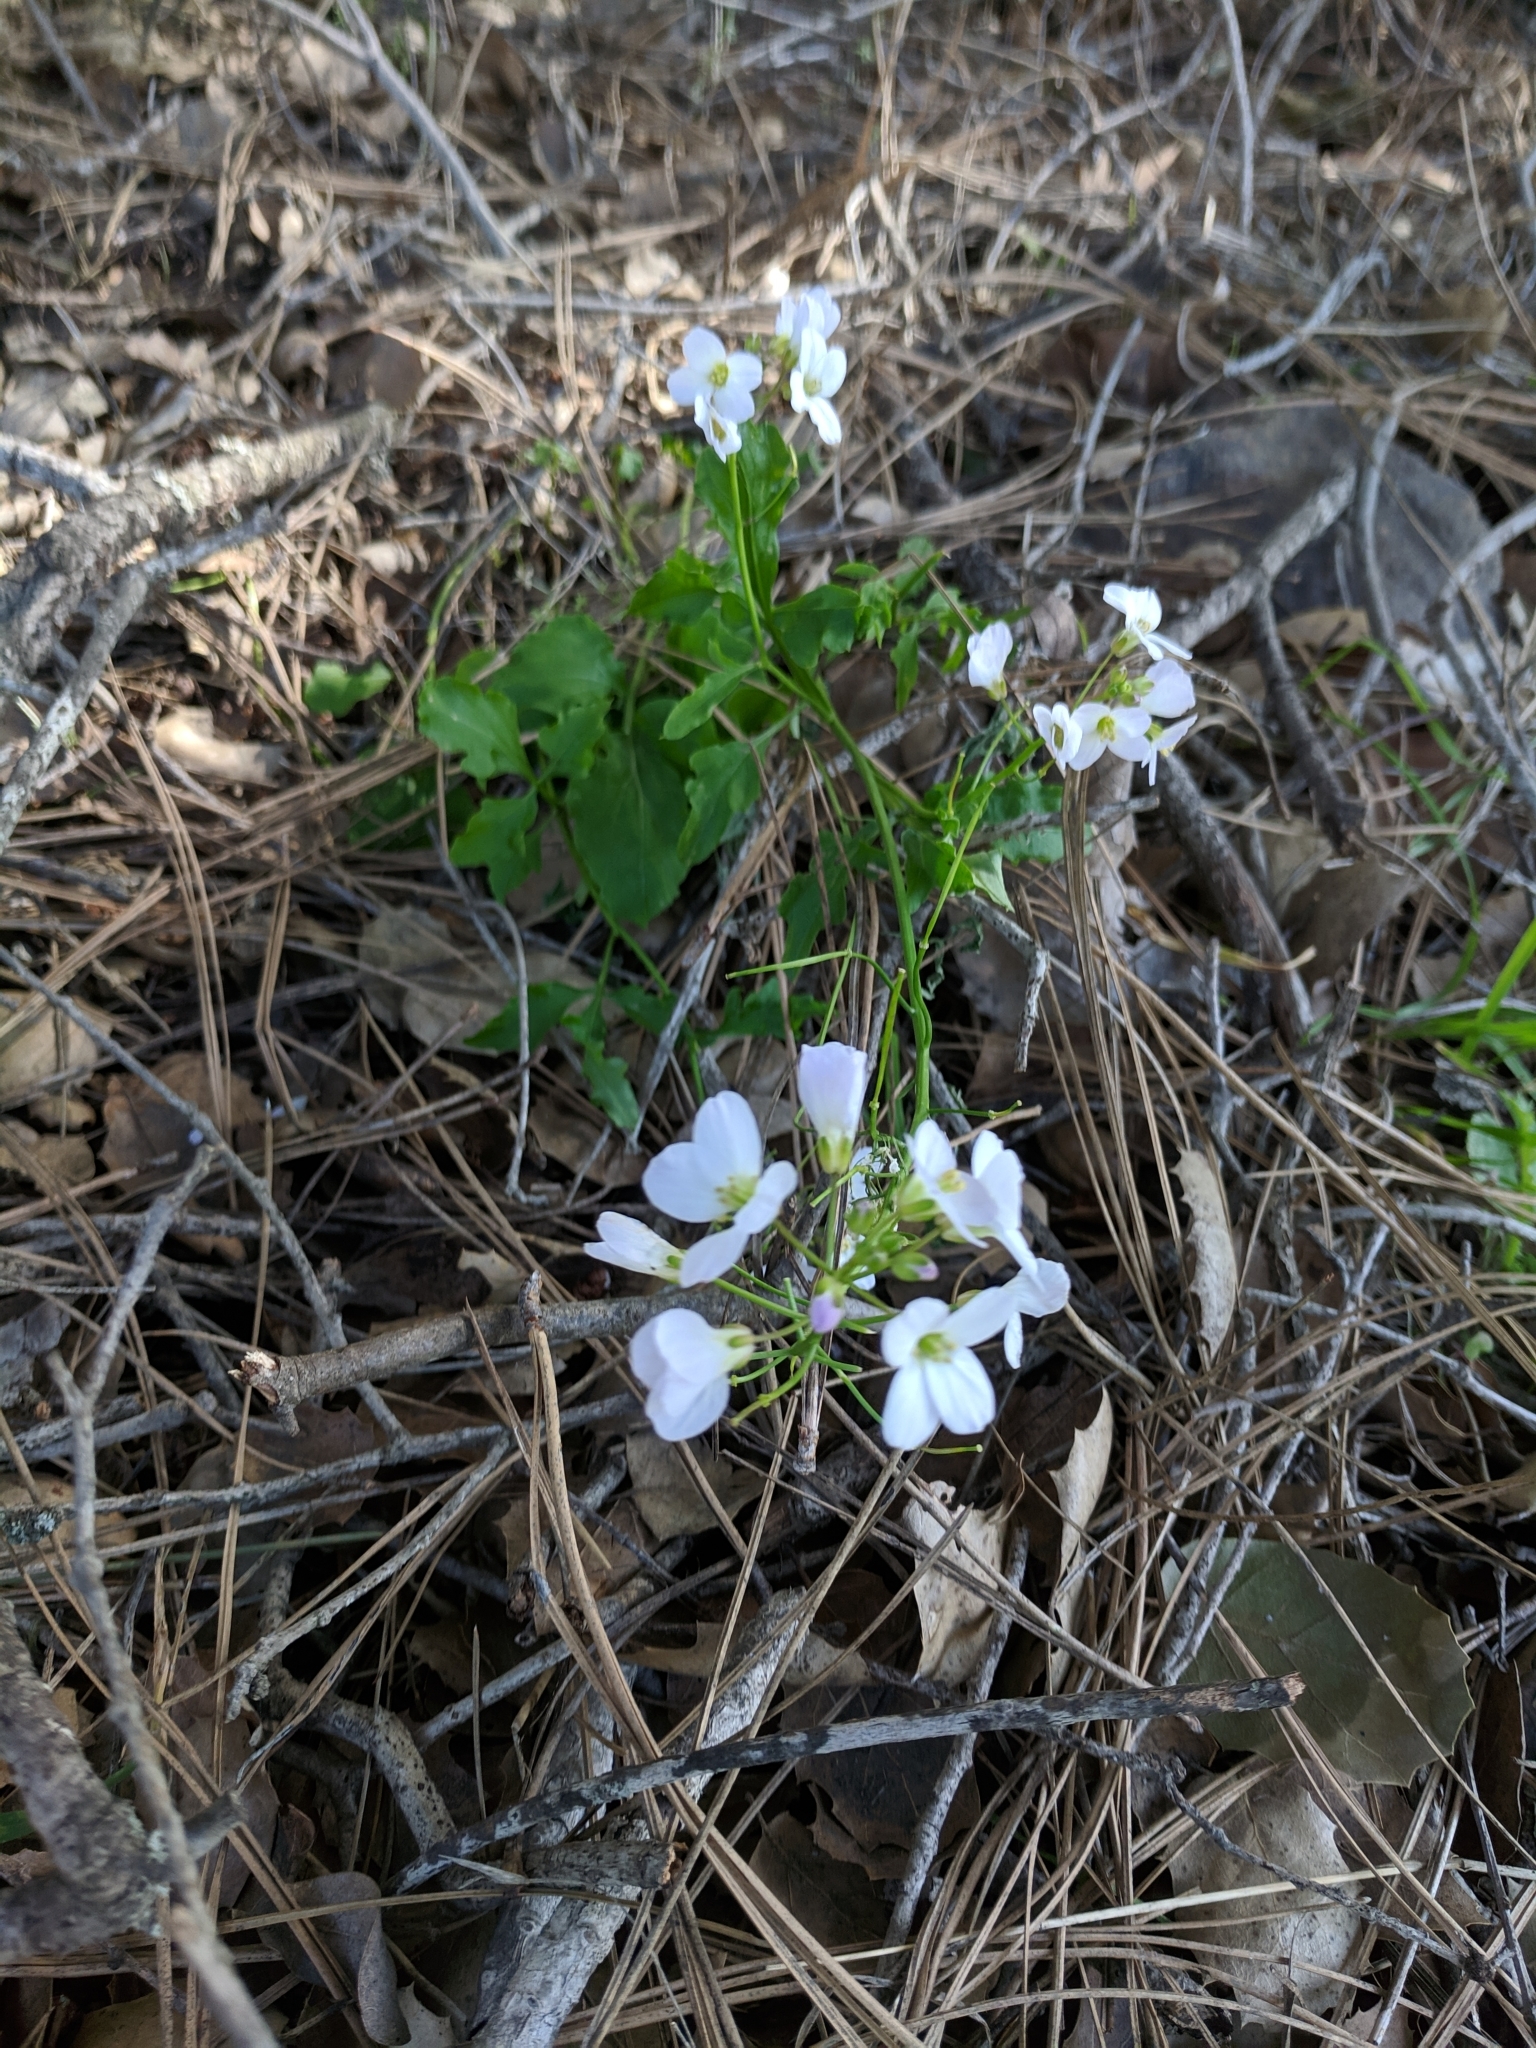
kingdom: Plantae
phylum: Tracheophyta
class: Magnoliopsida
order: Brassicales
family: Brassicaceae
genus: Cardamine
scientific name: Cardamine californica
